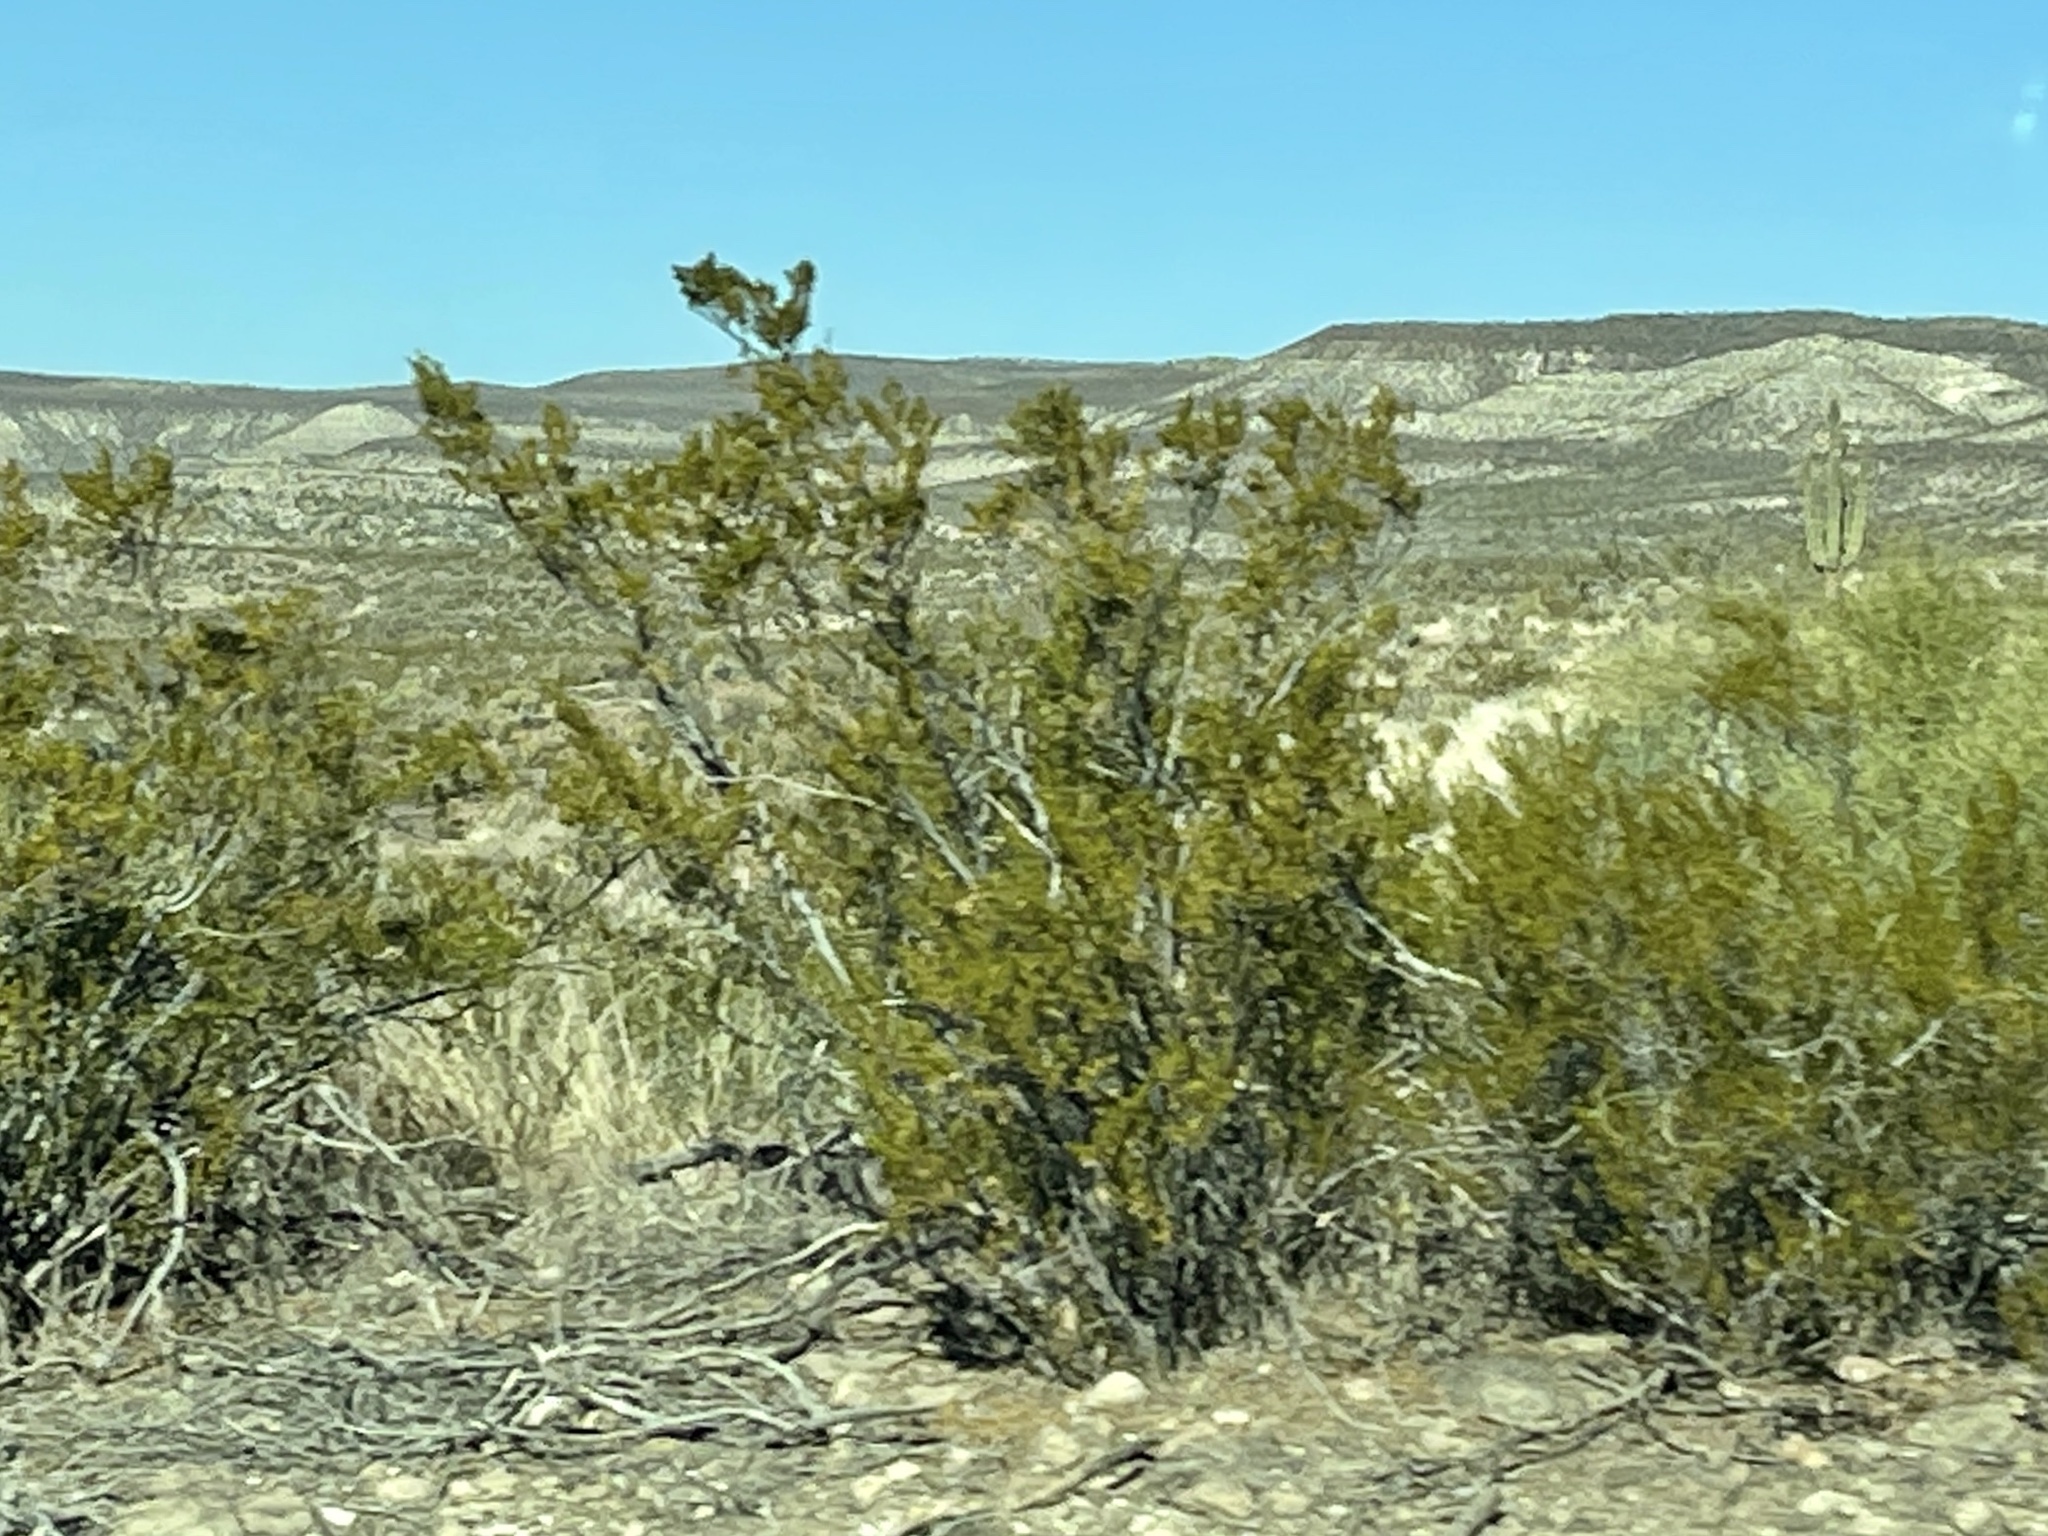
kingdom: Plantae
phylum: Tracheophyta
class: Magnoliopsida
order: Zygophyllales
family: Zygophyllaceae
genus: Larrea
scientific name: Larrea tridentata
